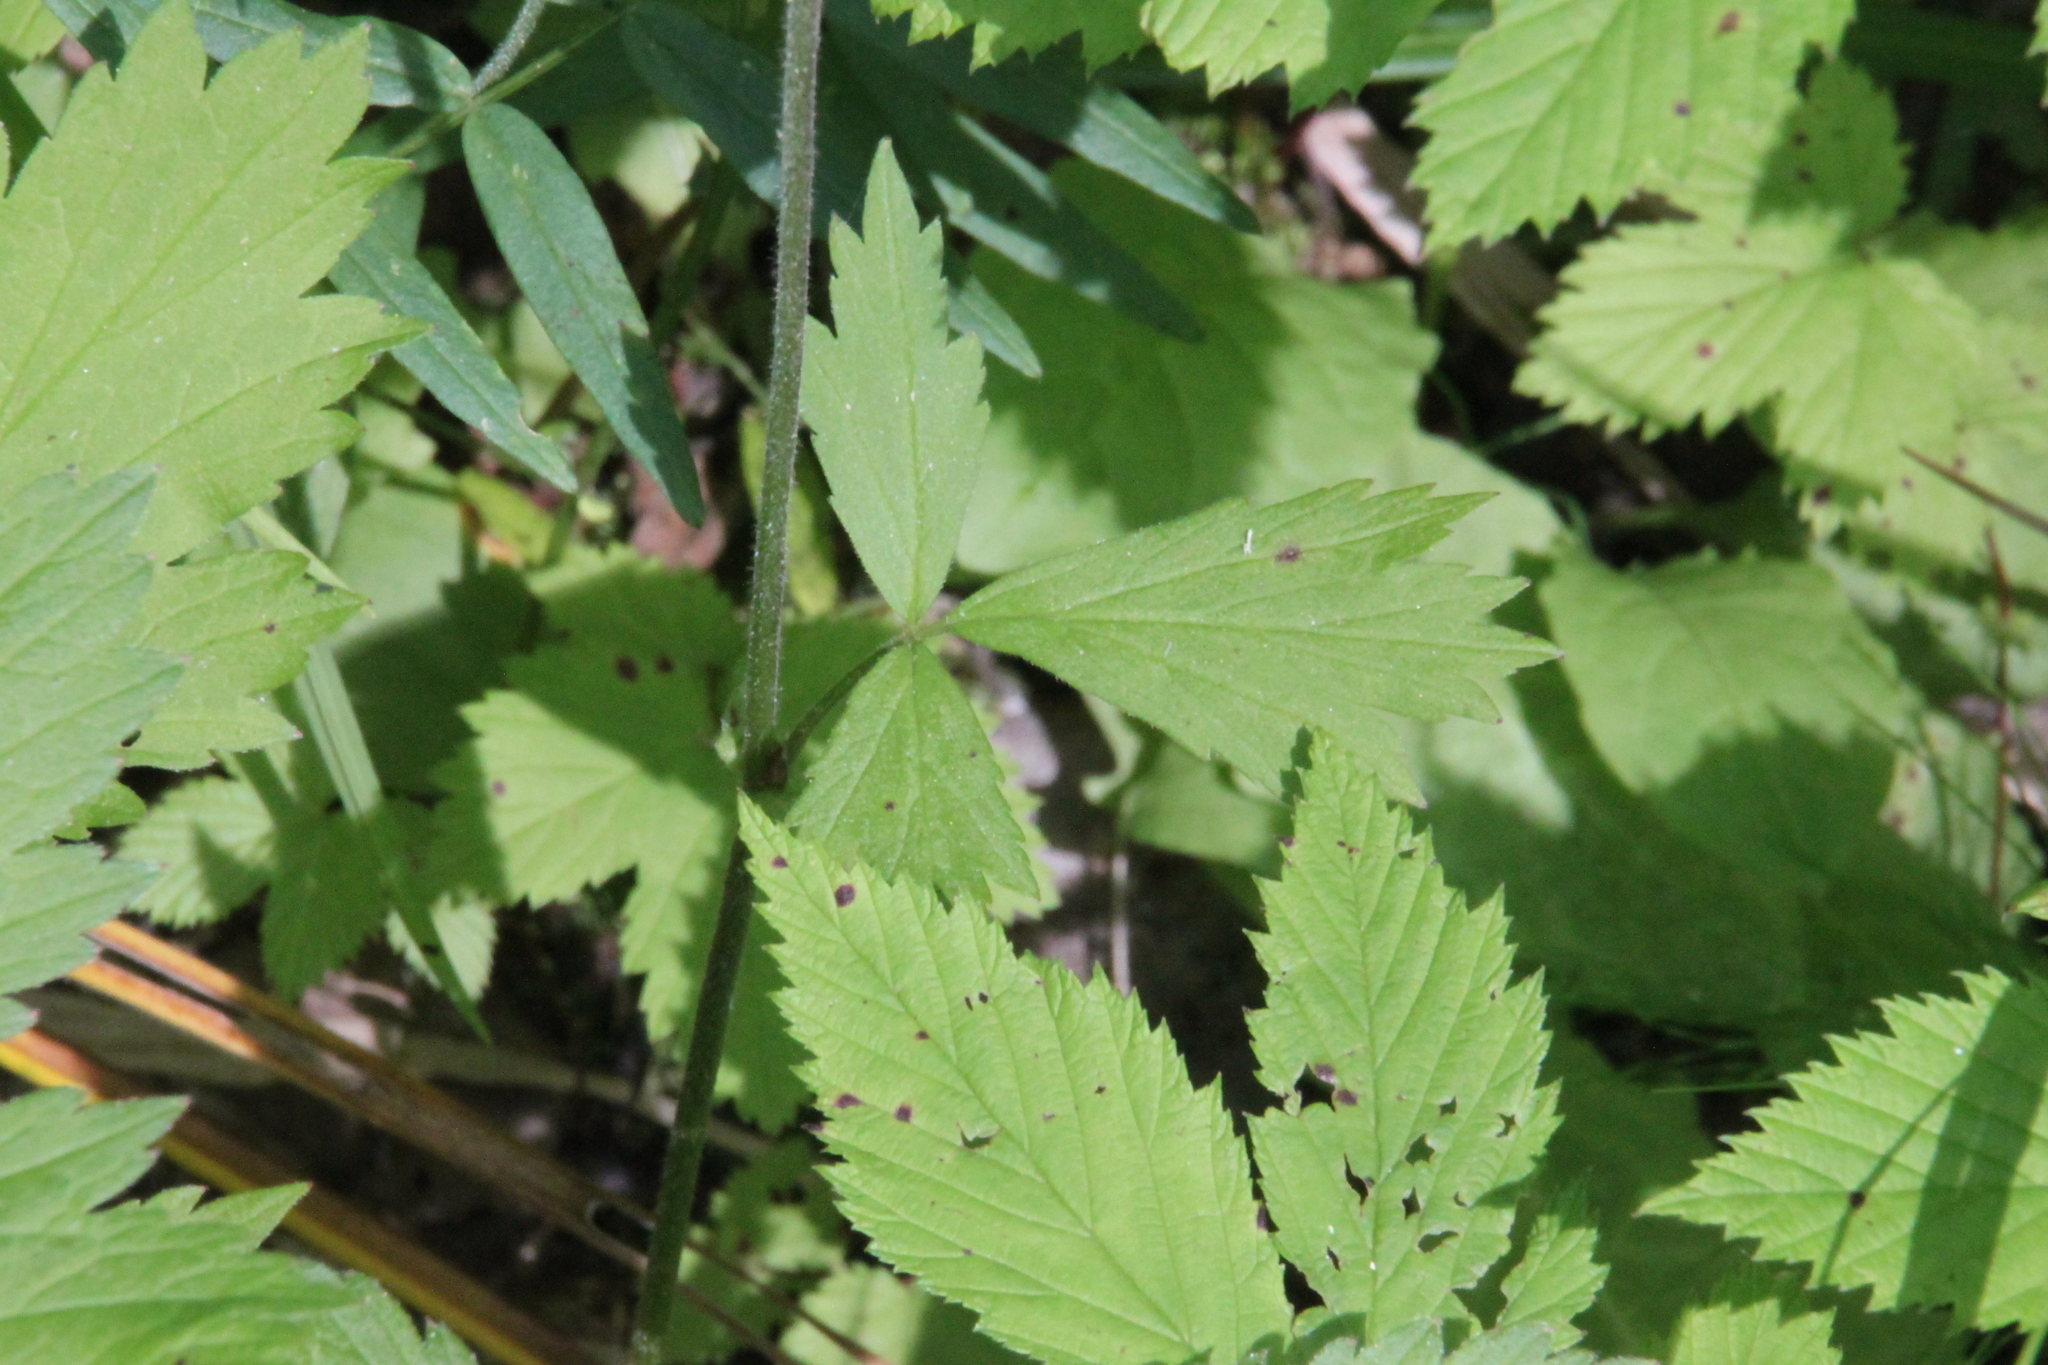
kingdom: Plantae
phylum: Tracheophyta
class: Magnoliopsida
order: Rosales
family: Rosaceae
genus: Geum
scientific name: Geum rivale
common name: Water avens
